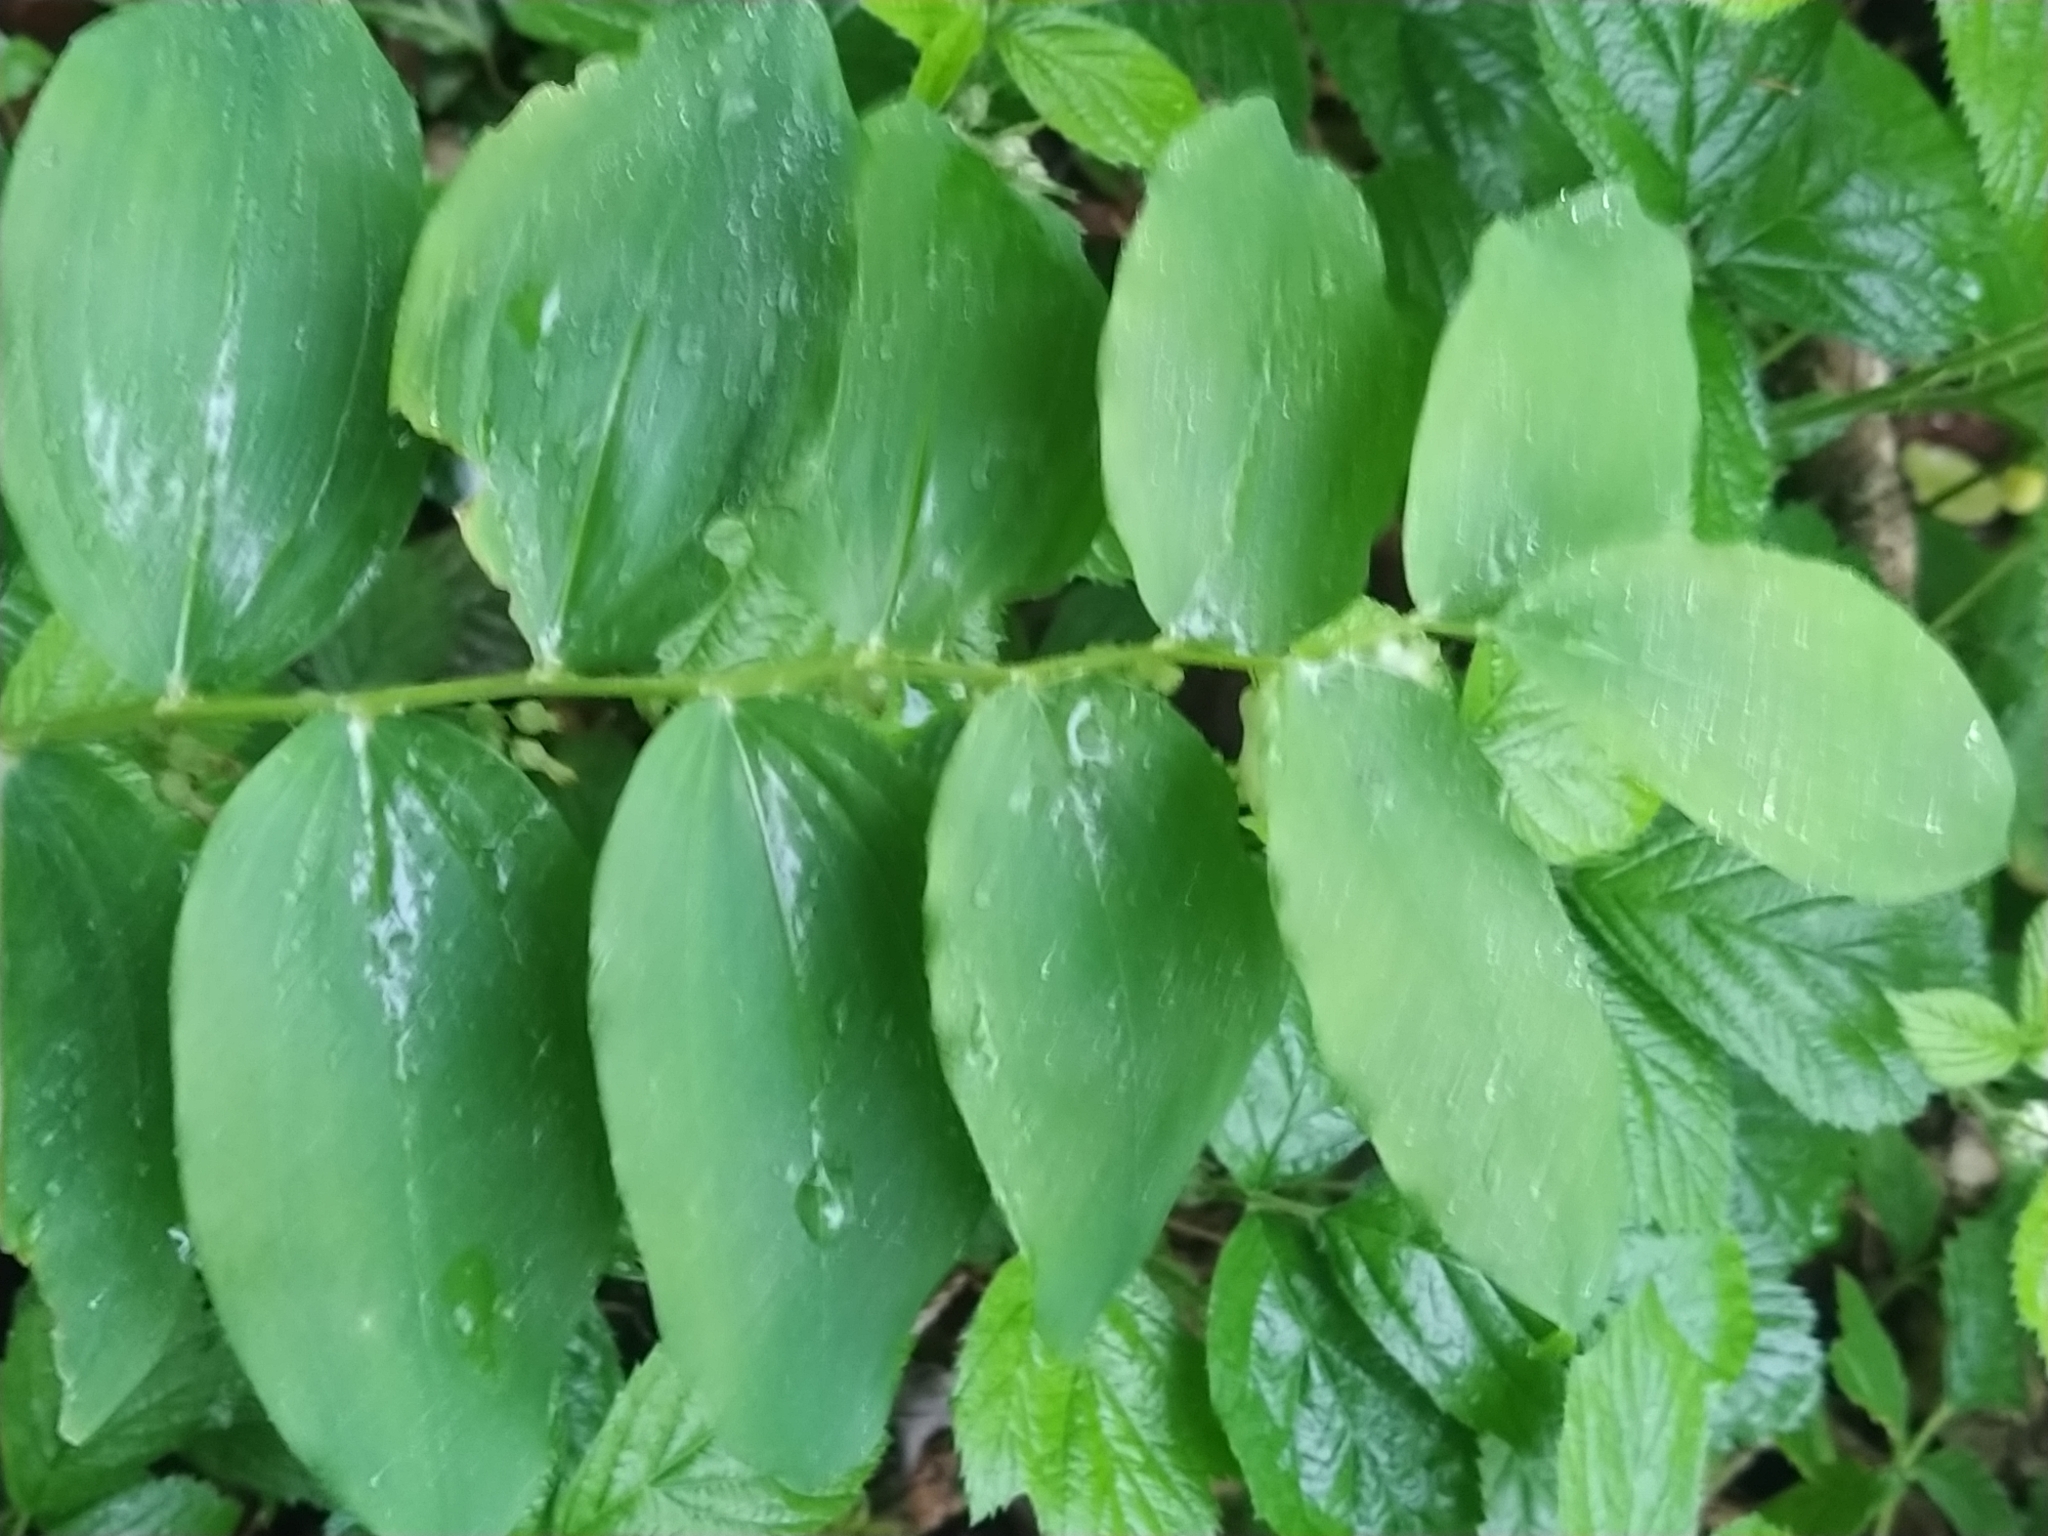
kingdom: Plantae
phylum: Tracheophyta
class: Liliopsida
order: Asparagales
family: Asparagaceae
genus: Polygonatum
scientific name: Polygonatum multiflorum
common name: Solomon's-seal
